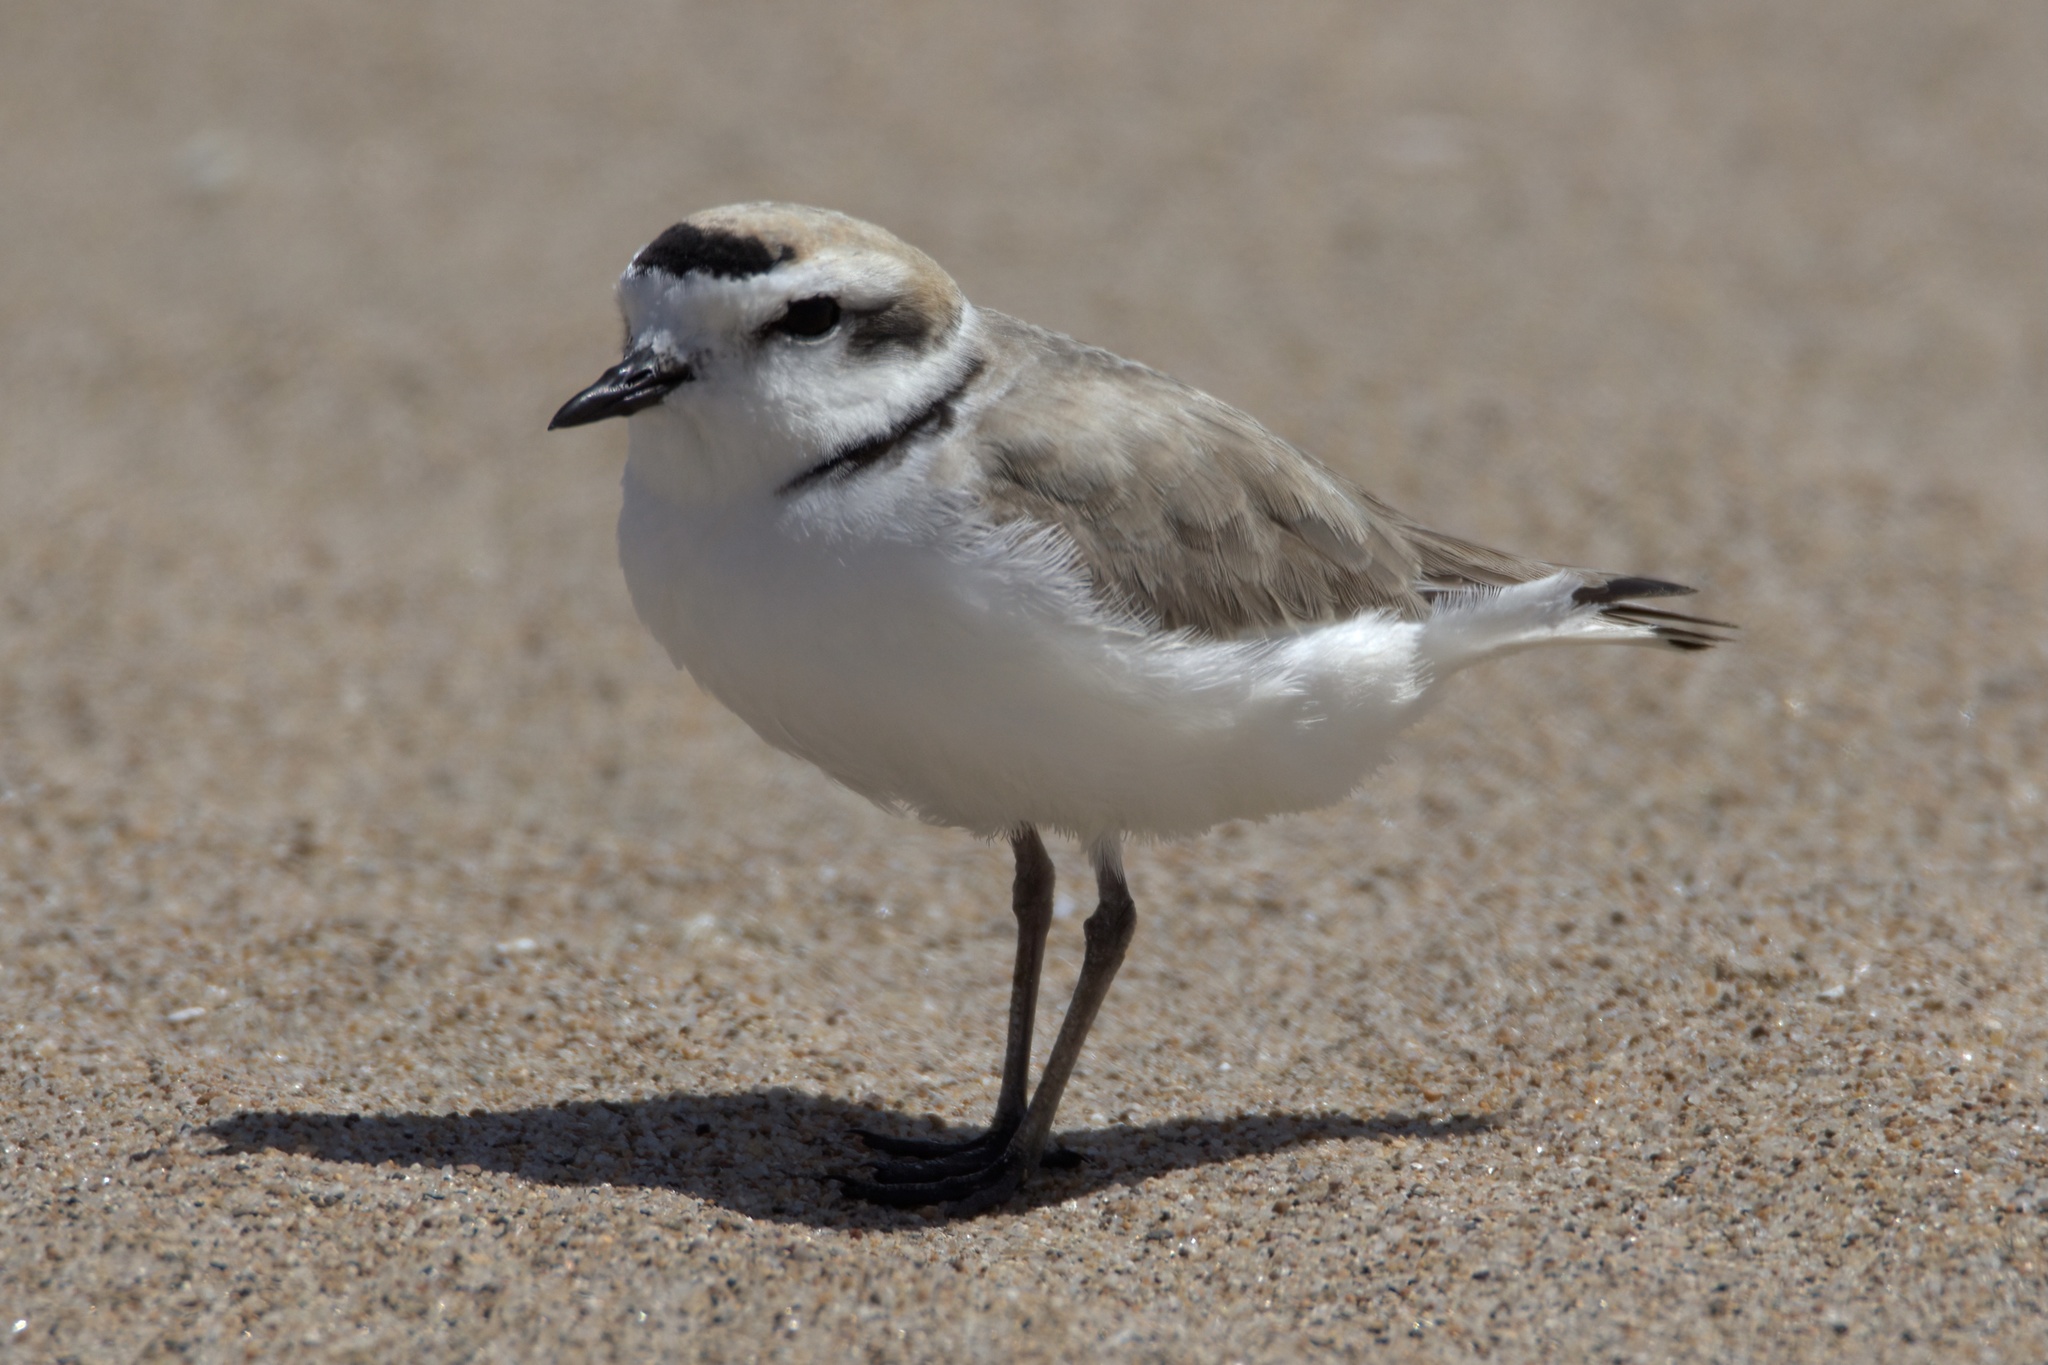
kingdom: Animalia
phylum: Chordata
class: Aves
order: Charadriiformes
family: Charadriidae
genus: Anarhynchus
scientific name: Anarhynchus
